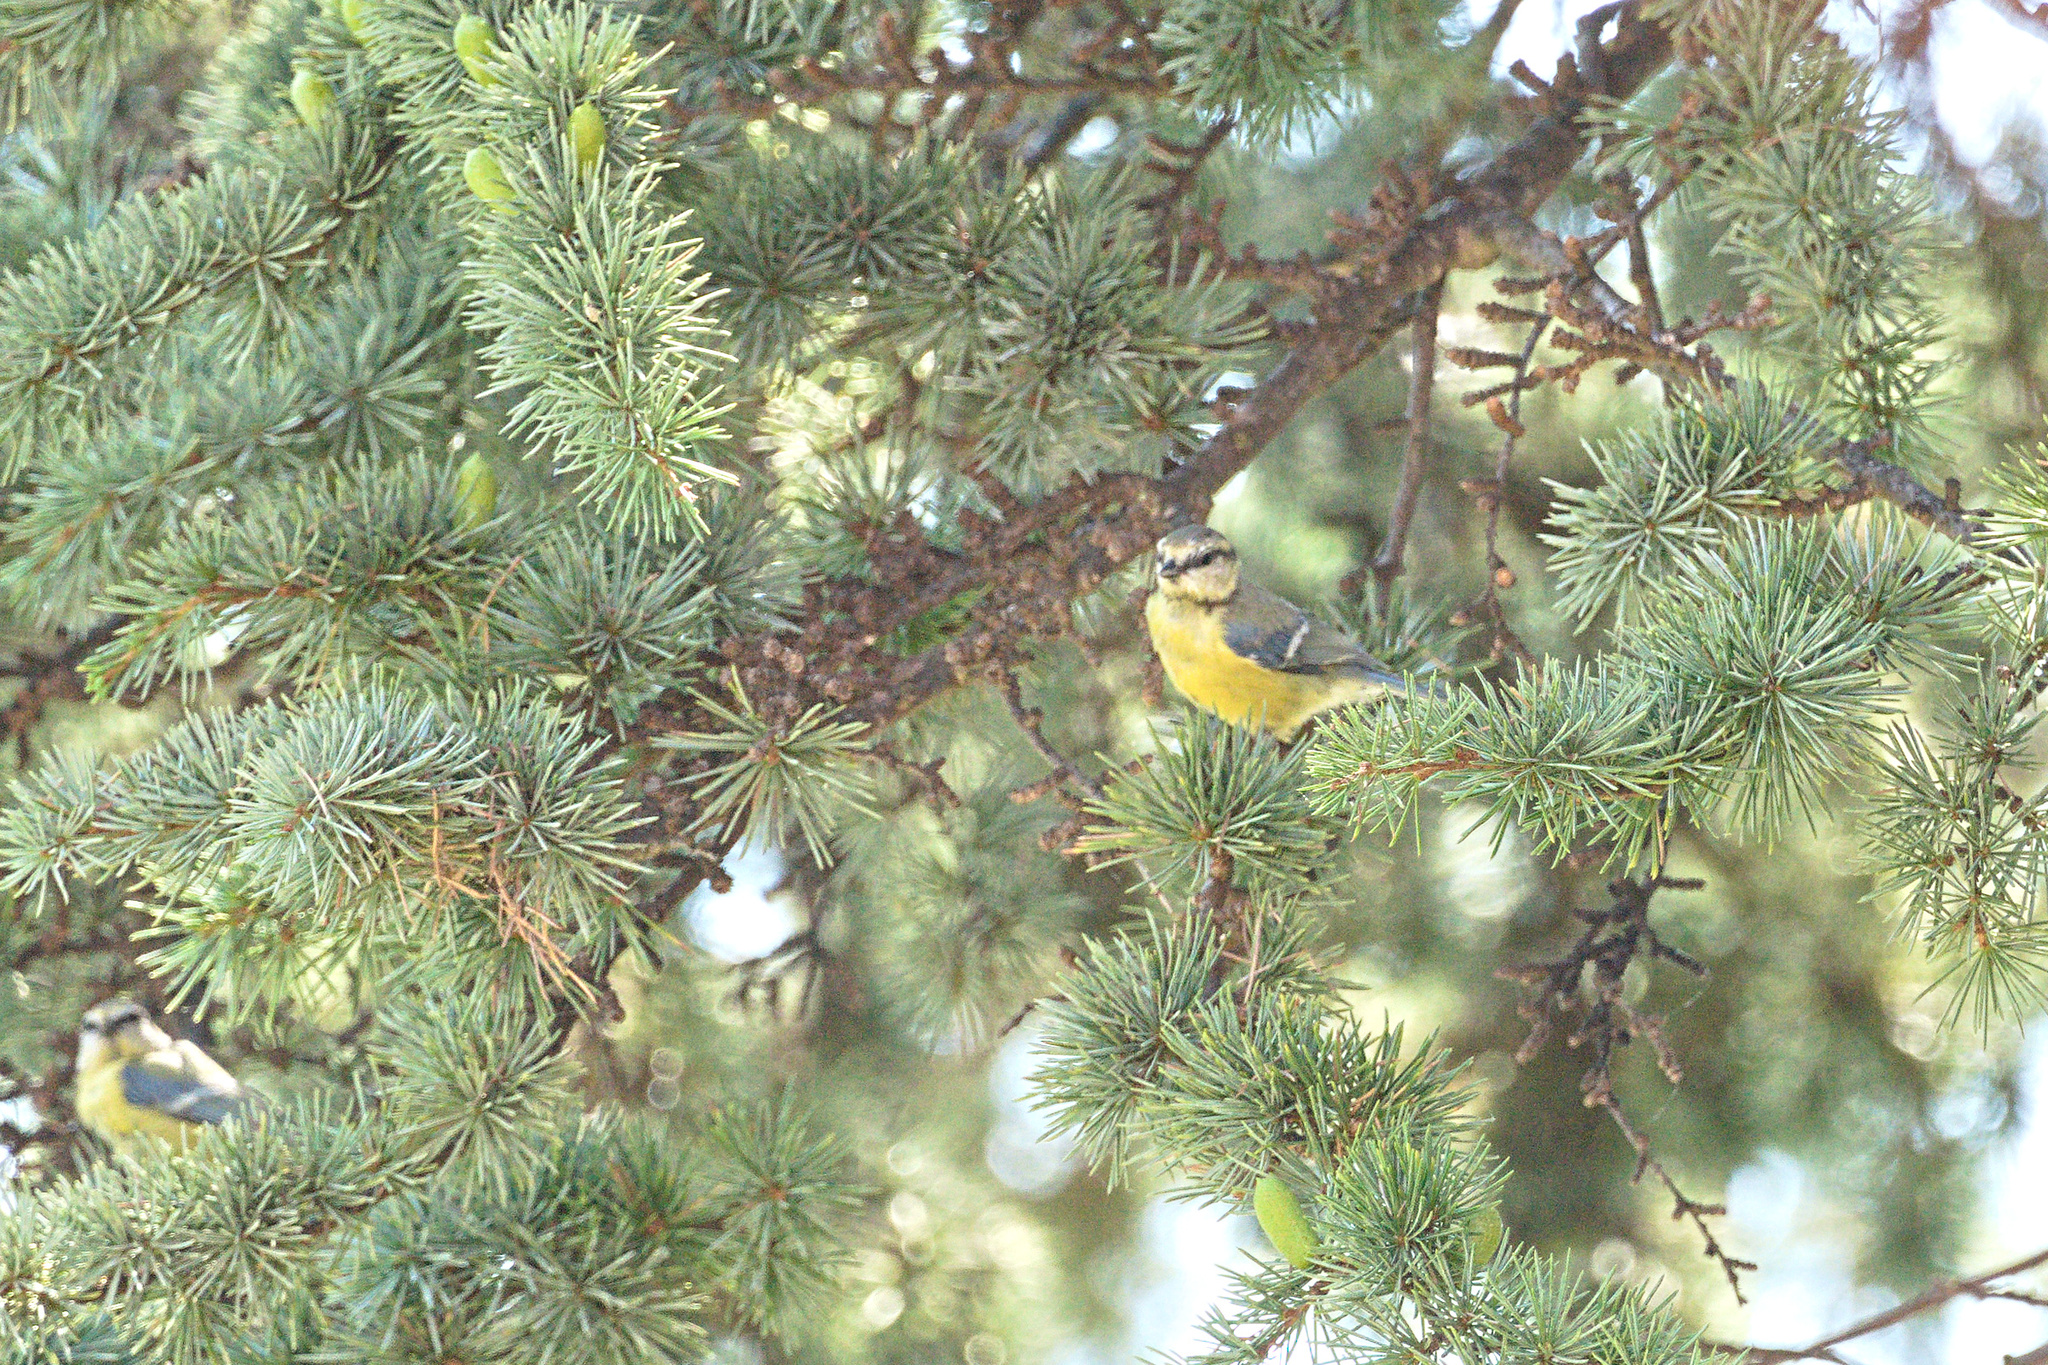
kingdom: Animalia
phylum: Chordata
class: Aves
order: Passeriformes
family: Paridae
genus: Cyanistes
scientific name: Cyanistes caeruleus
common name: Eurasian blue tit
